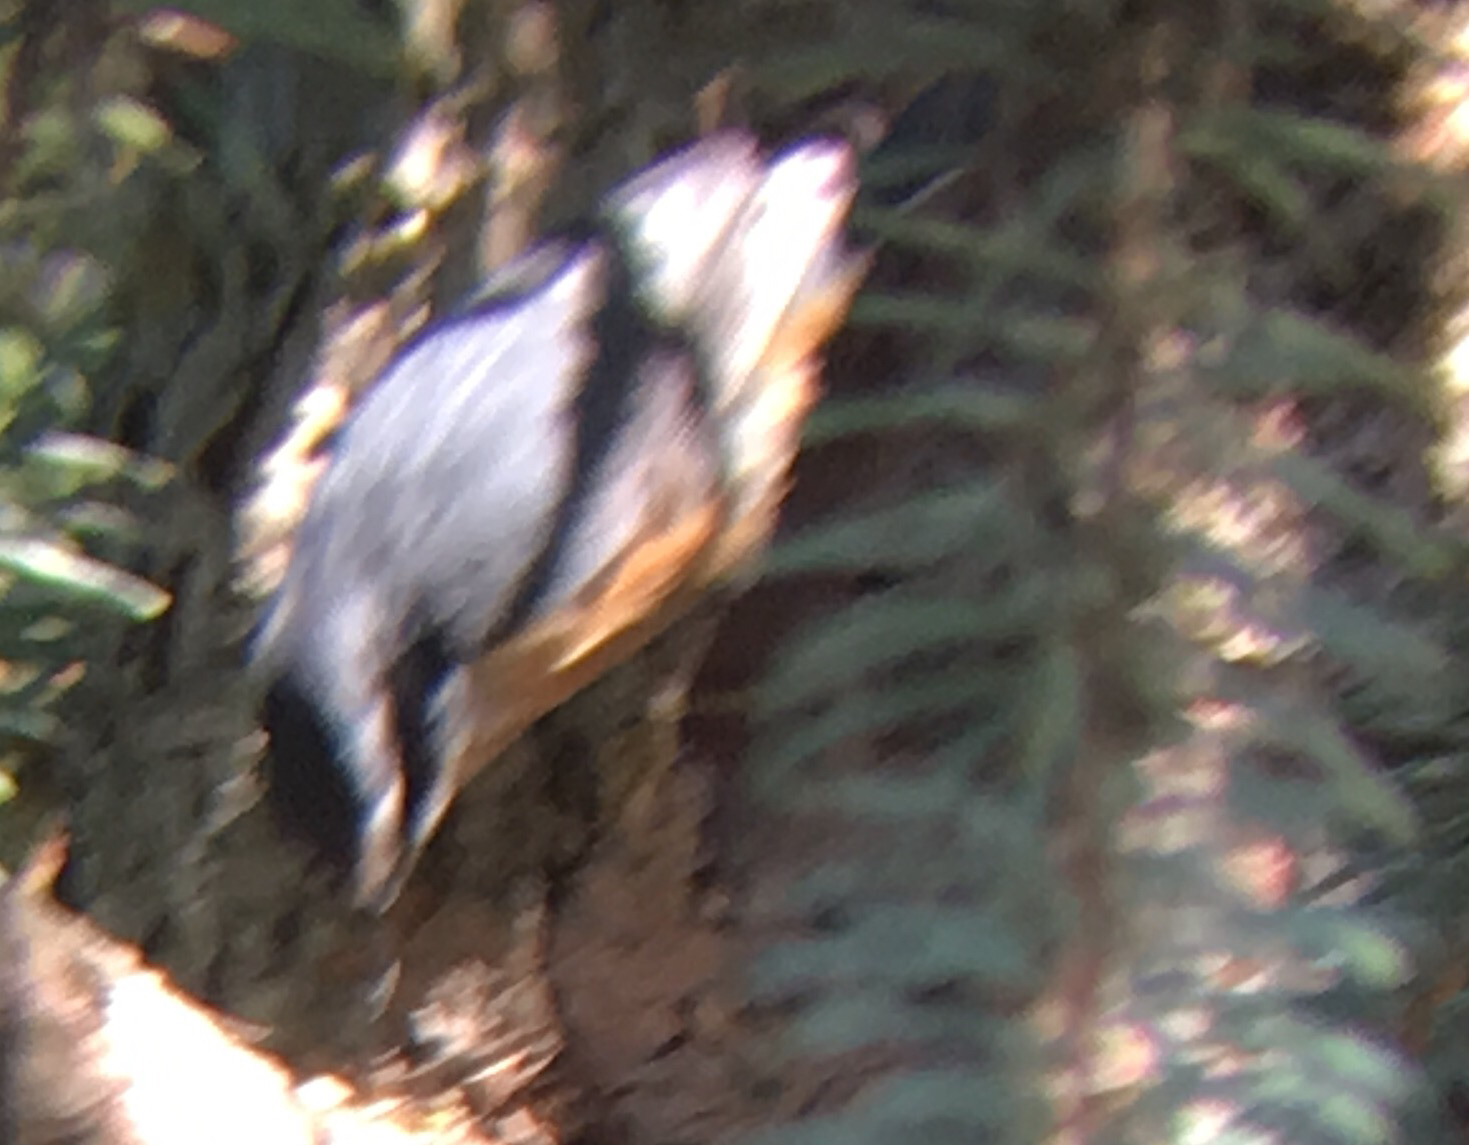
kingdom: Animalia
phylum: Chordata
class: Aves
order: Passeriformes
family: Sittidae
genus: Sitta
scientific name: Sitta canadensis
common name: Red-breasted nuthatch
